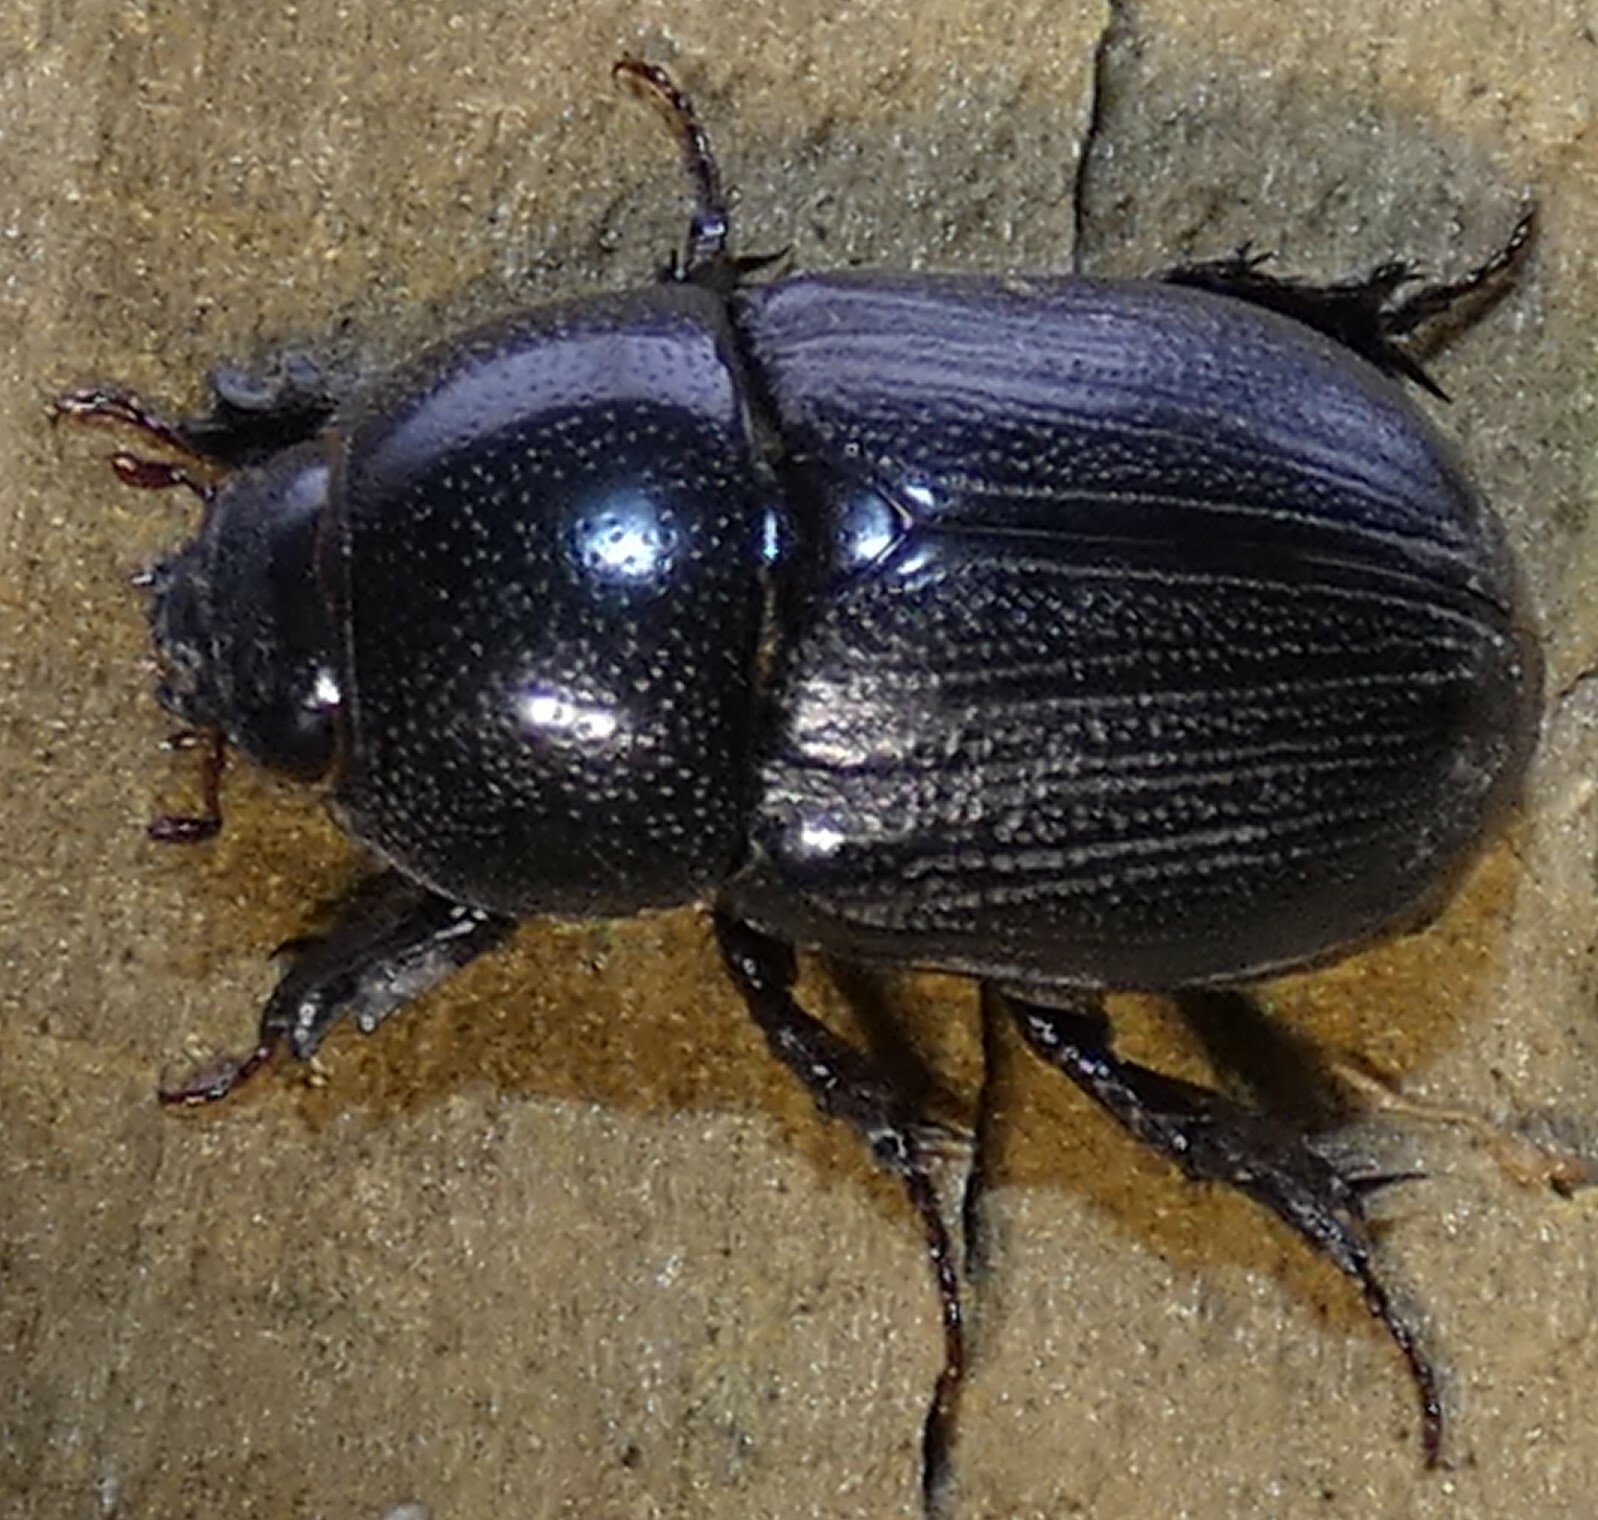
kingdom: Animalia
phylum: Arthropoda
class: Insecta
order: Coleoptera
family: Scarabaeidae
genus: Euetheola
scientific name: Euetheola humilis
